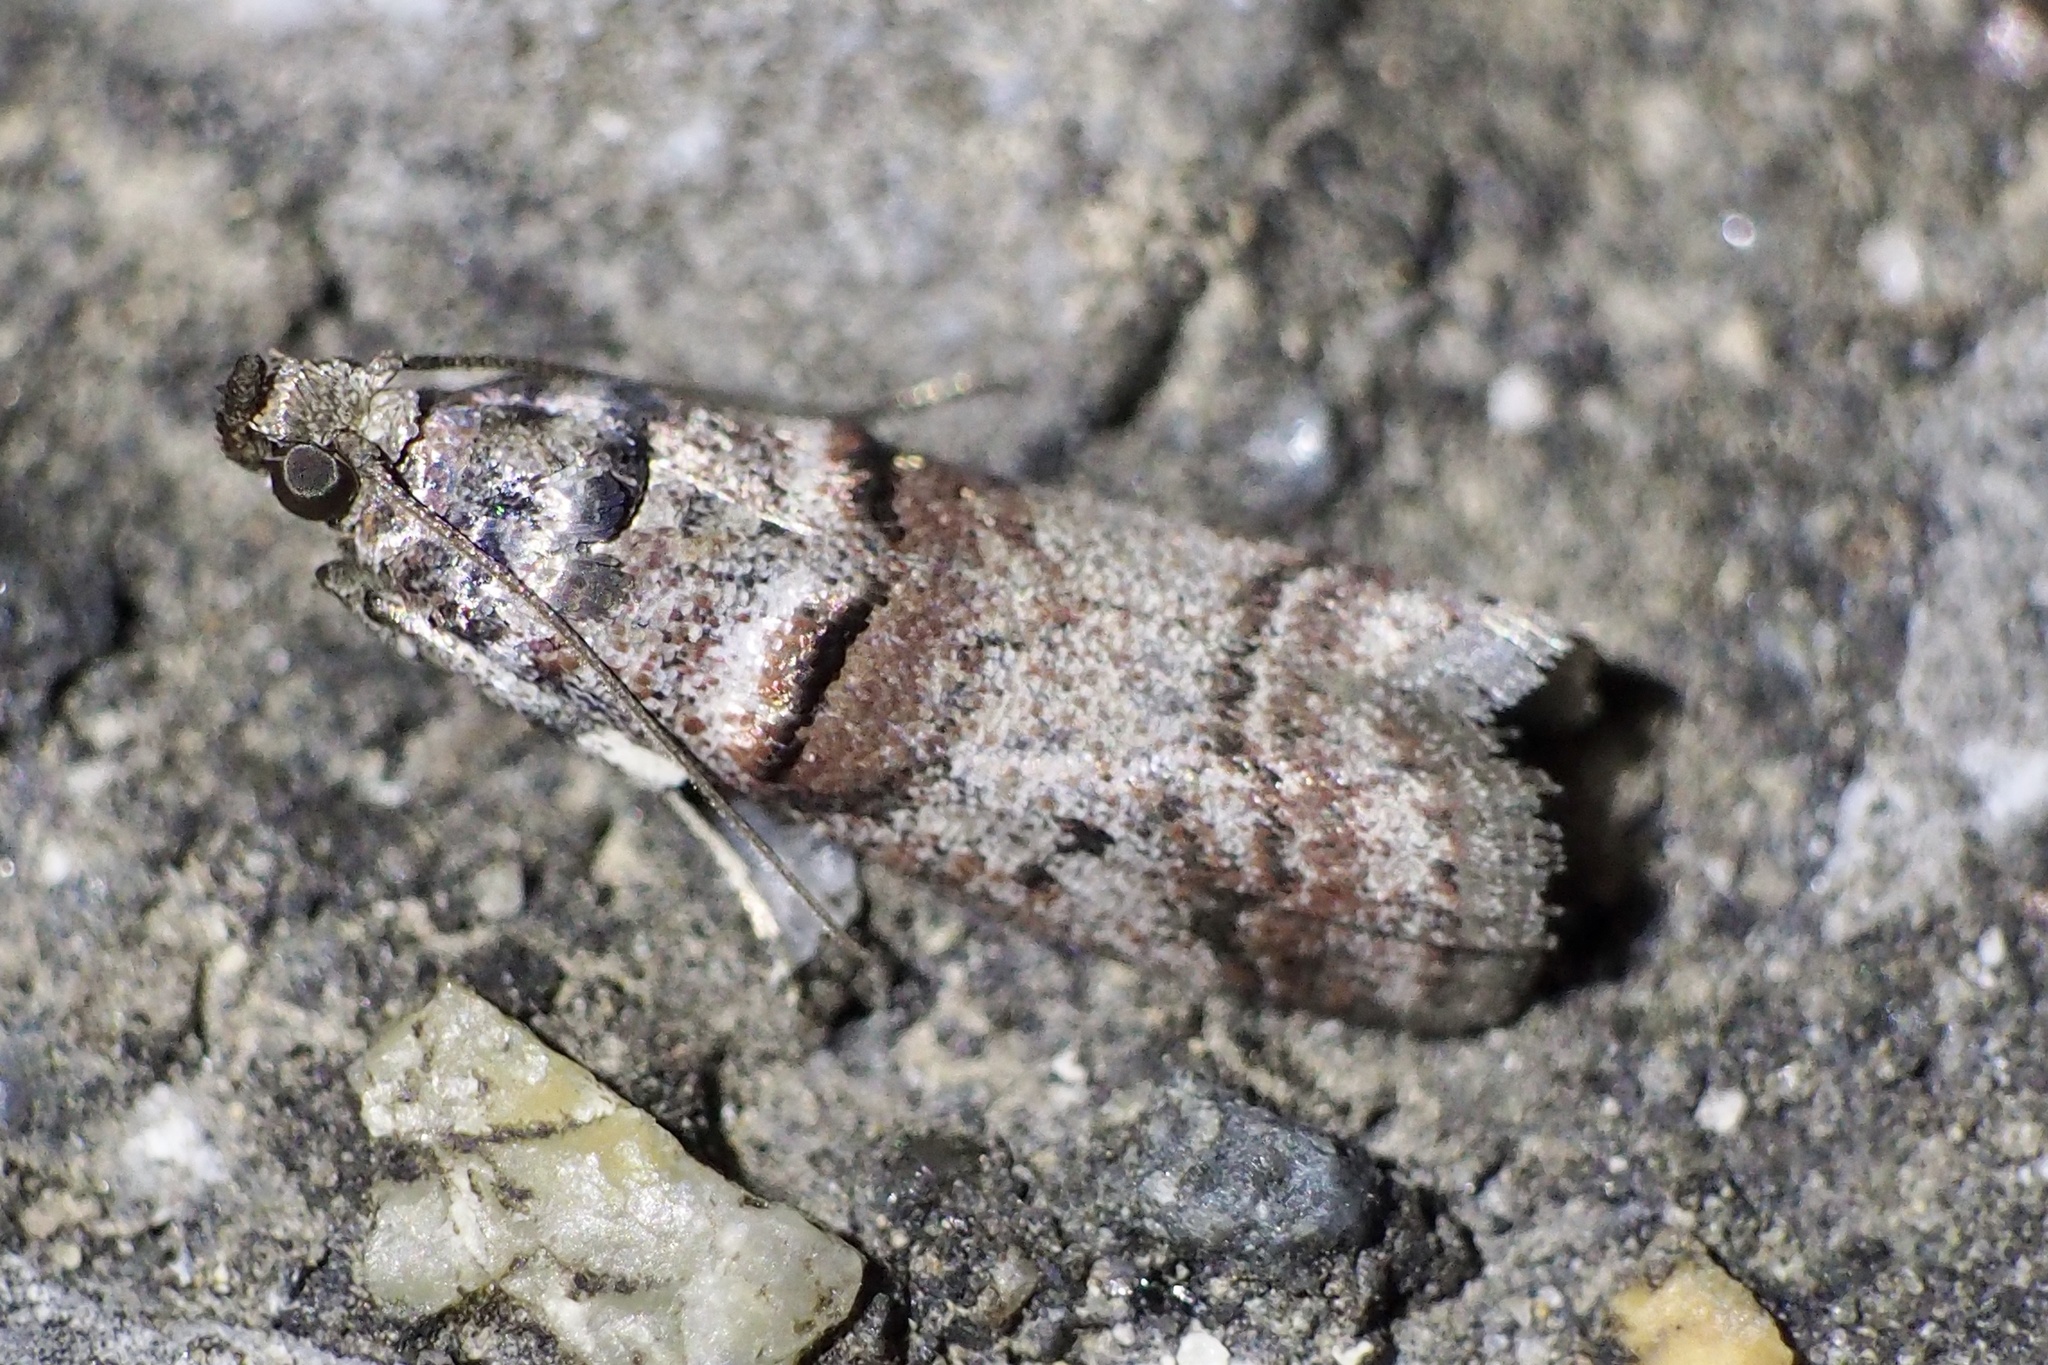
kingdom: Animalia
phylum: Arthropoda
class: Insecta
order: Lepidoptera
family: Pyralidae
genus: Acrobasis
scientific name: Acrobasis
